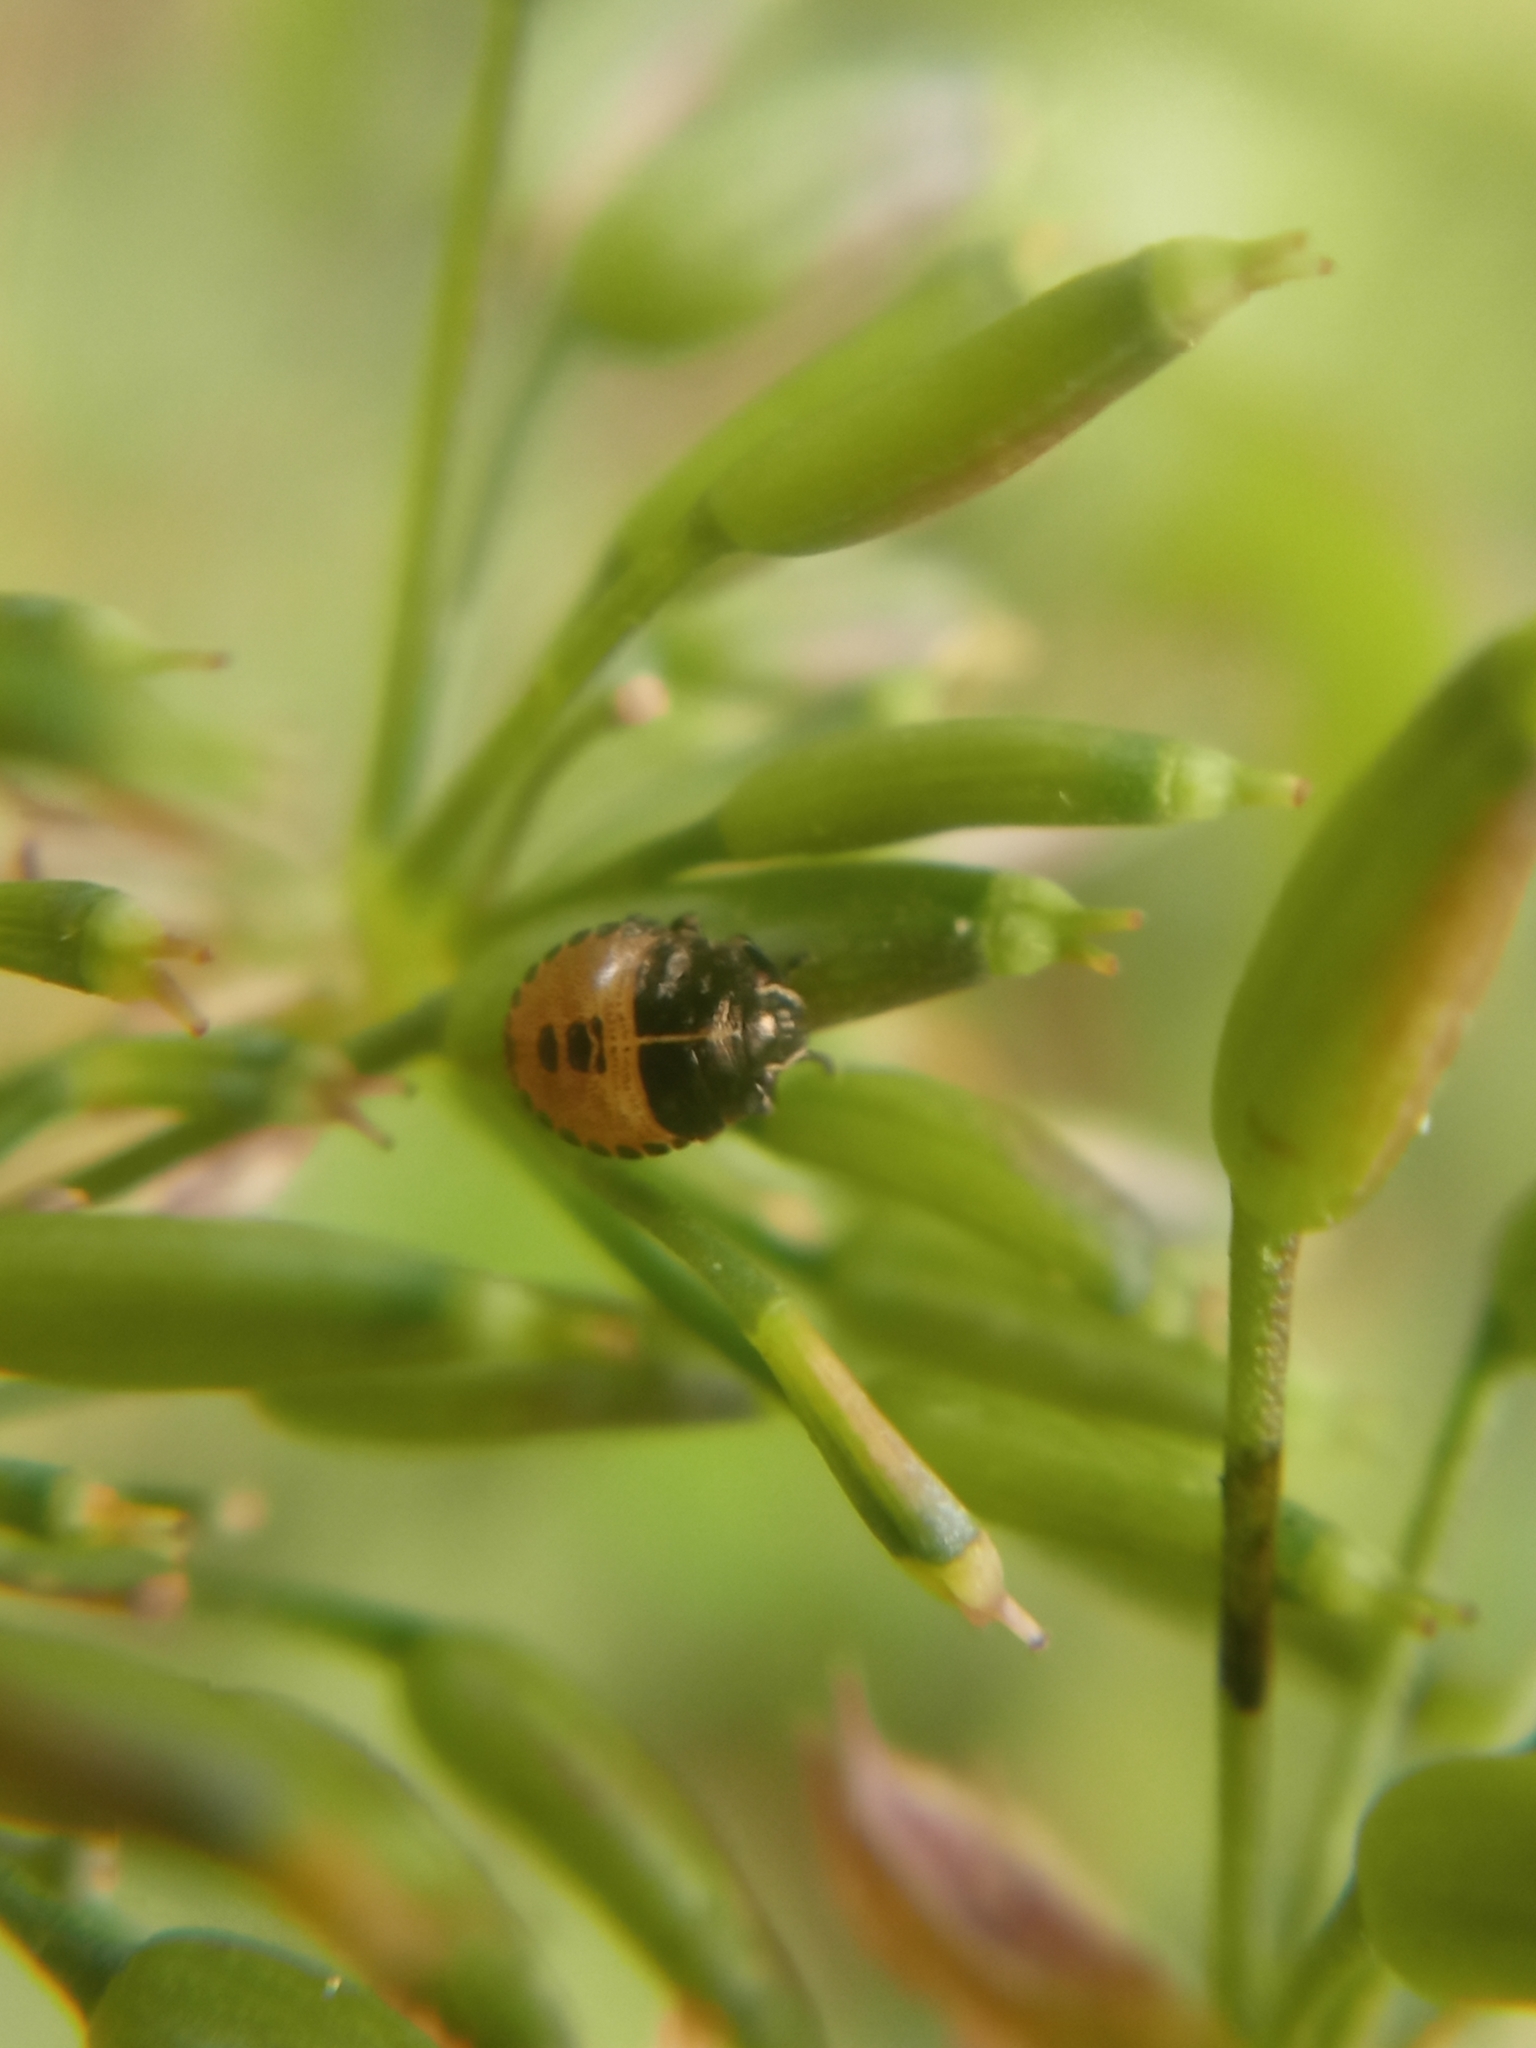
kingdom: Animalia
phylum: Arthropoda
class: Insecta
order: Hemiptera
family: Pentatomidae
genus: Graphosoma
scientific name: Graphosoma italicum
